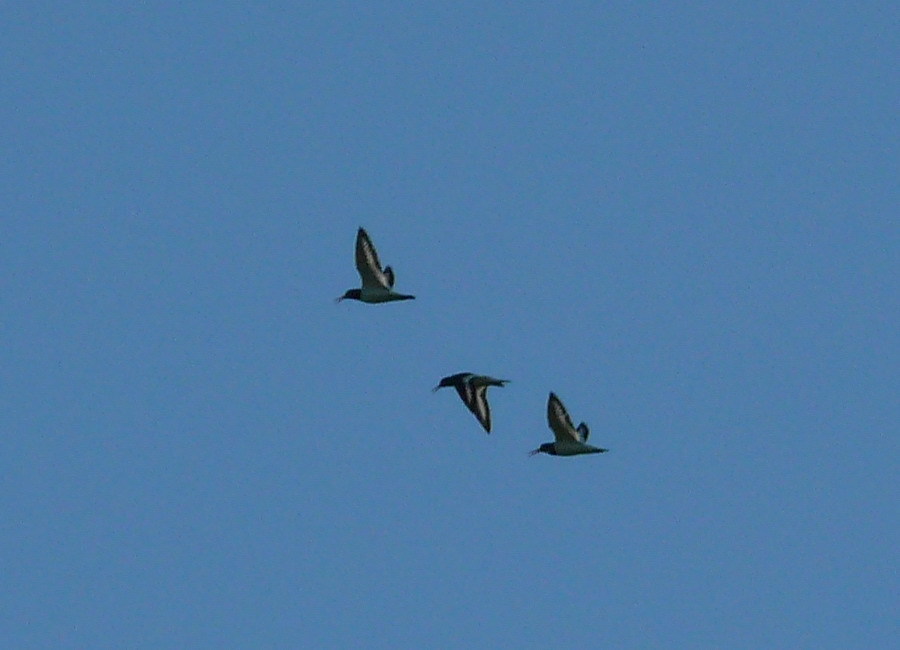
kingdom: Animalia
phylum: Chordata
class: Aves
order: Charadriiformes
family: Haematopodidae
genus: Haematopus
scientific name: Haematopus ostralegus
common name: Eurasian oystercatcher
